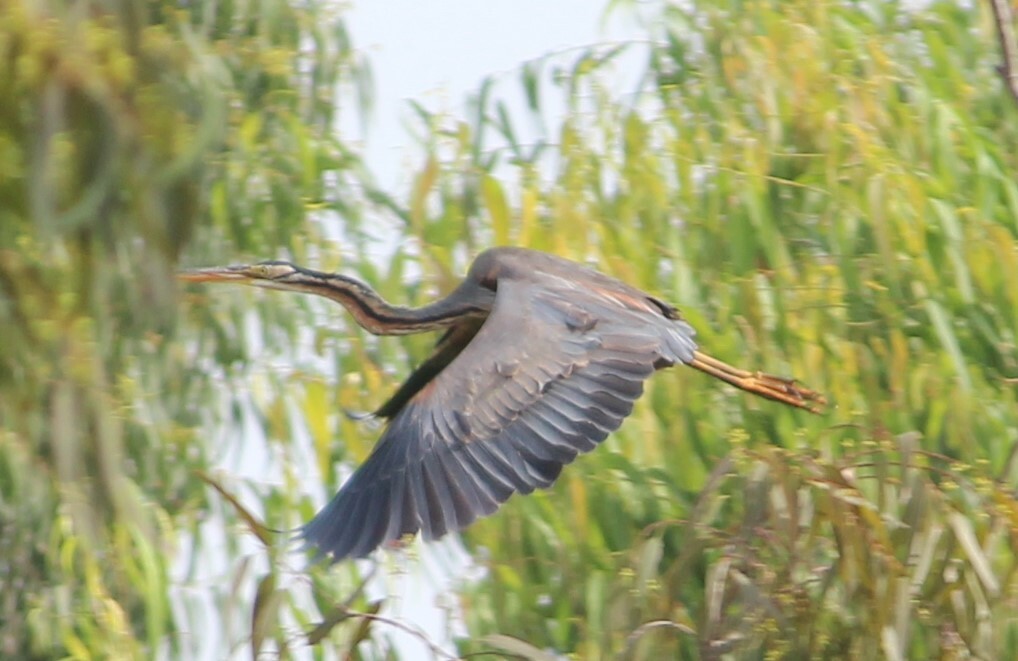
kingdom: Animalia
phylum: Chordata
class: Aves
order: Pelecaniformes
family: Ardeidae
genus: Ardea
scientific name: Ardea purpurea
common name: Purple heron
